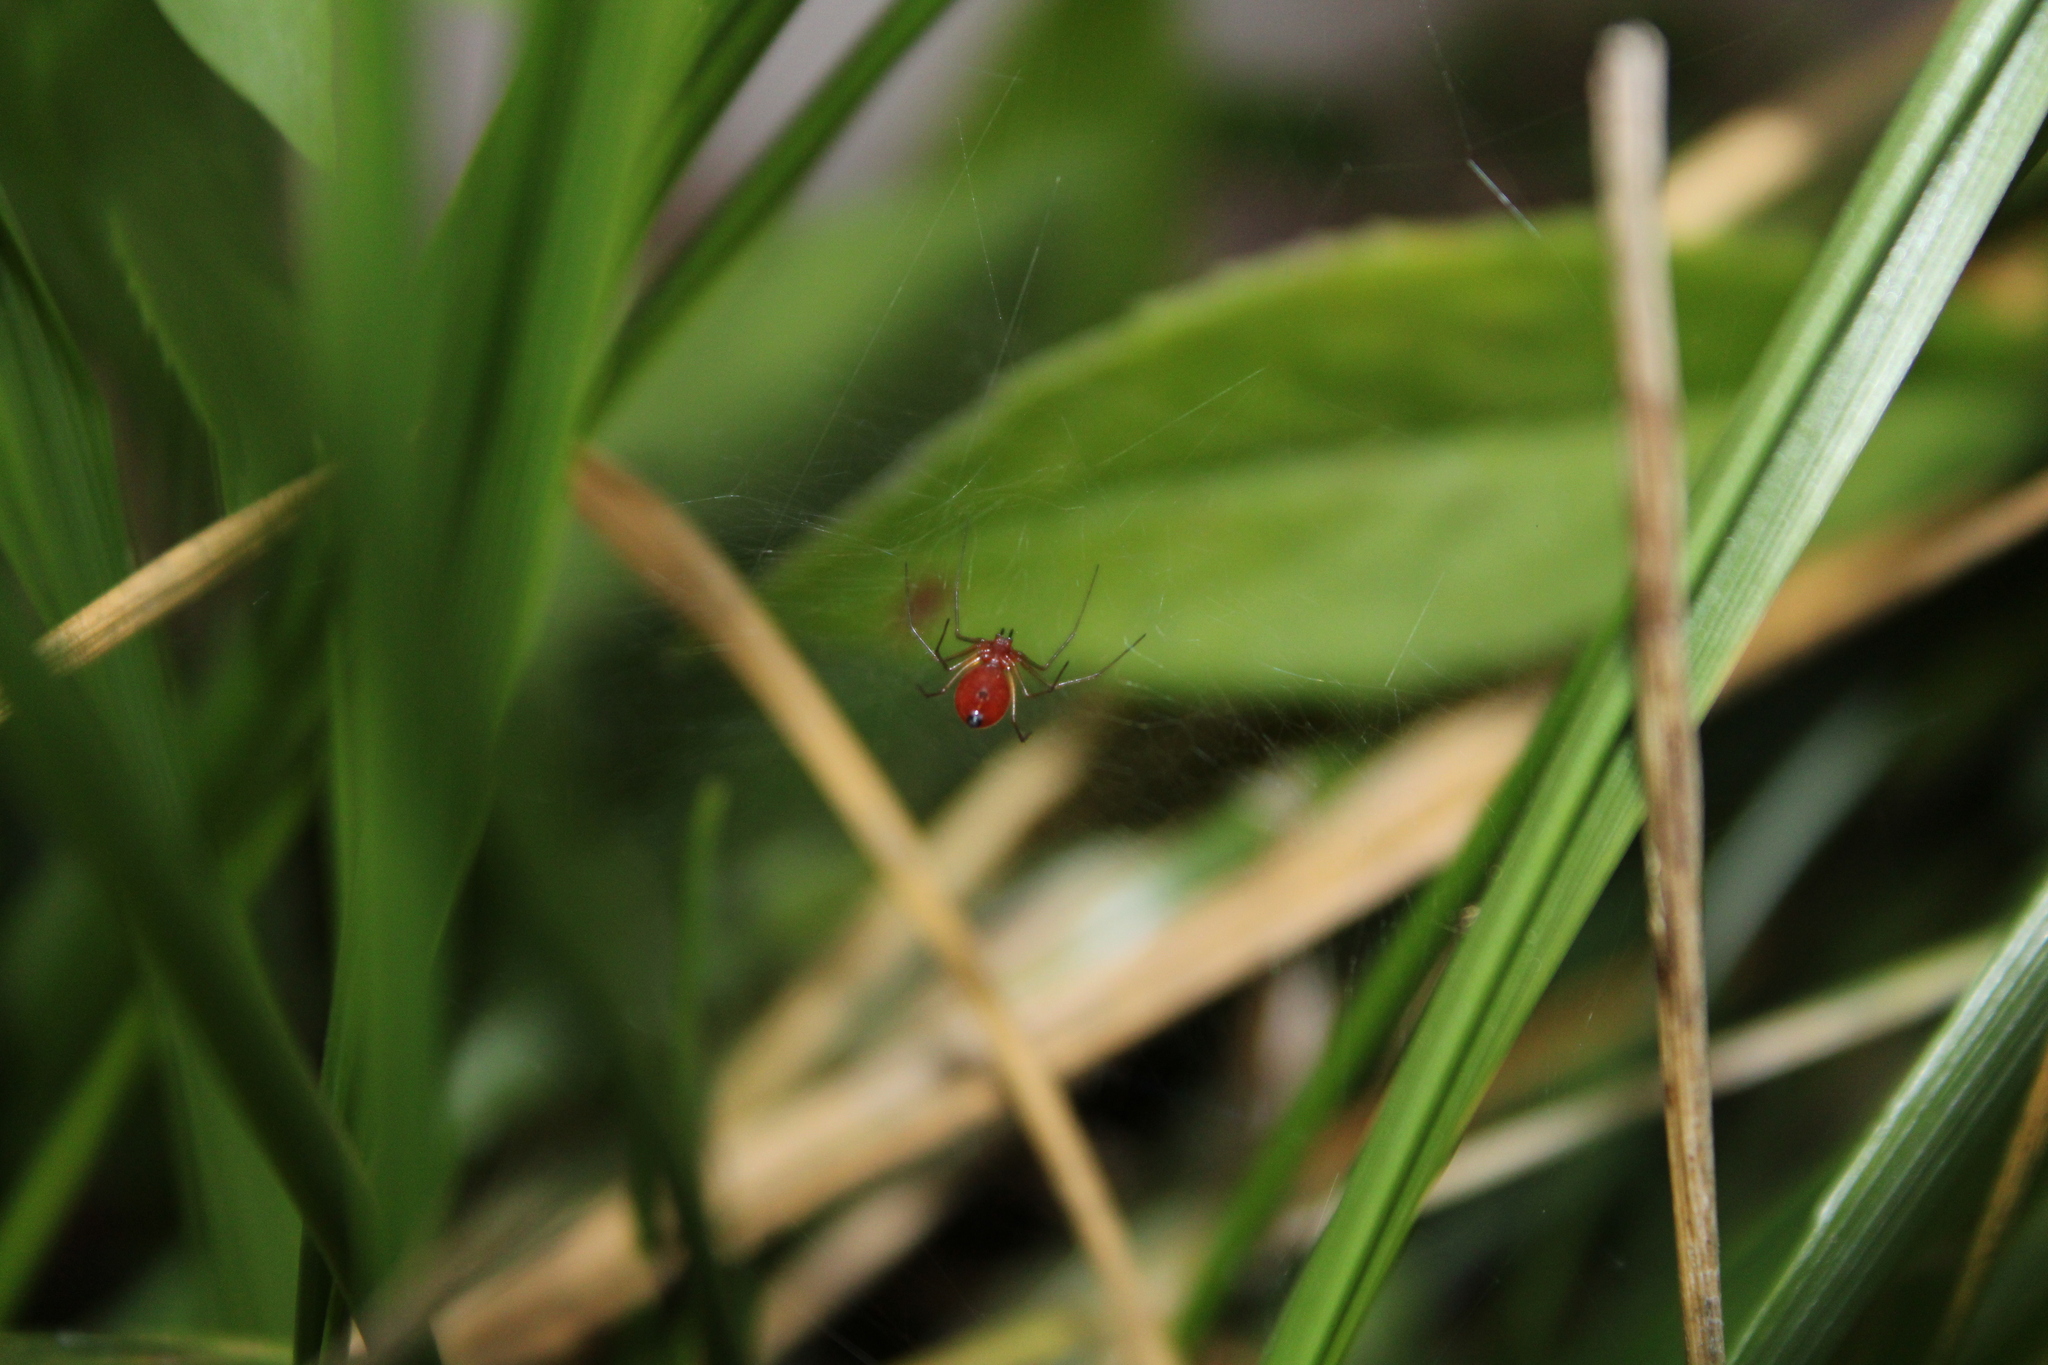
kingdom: Animalia
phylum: Arthropoda
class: Arachnida
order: Araneae
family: Linyphiidae
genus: Florinda
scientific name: Florinda coccinea
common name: Black-tailed red sheetweaver
